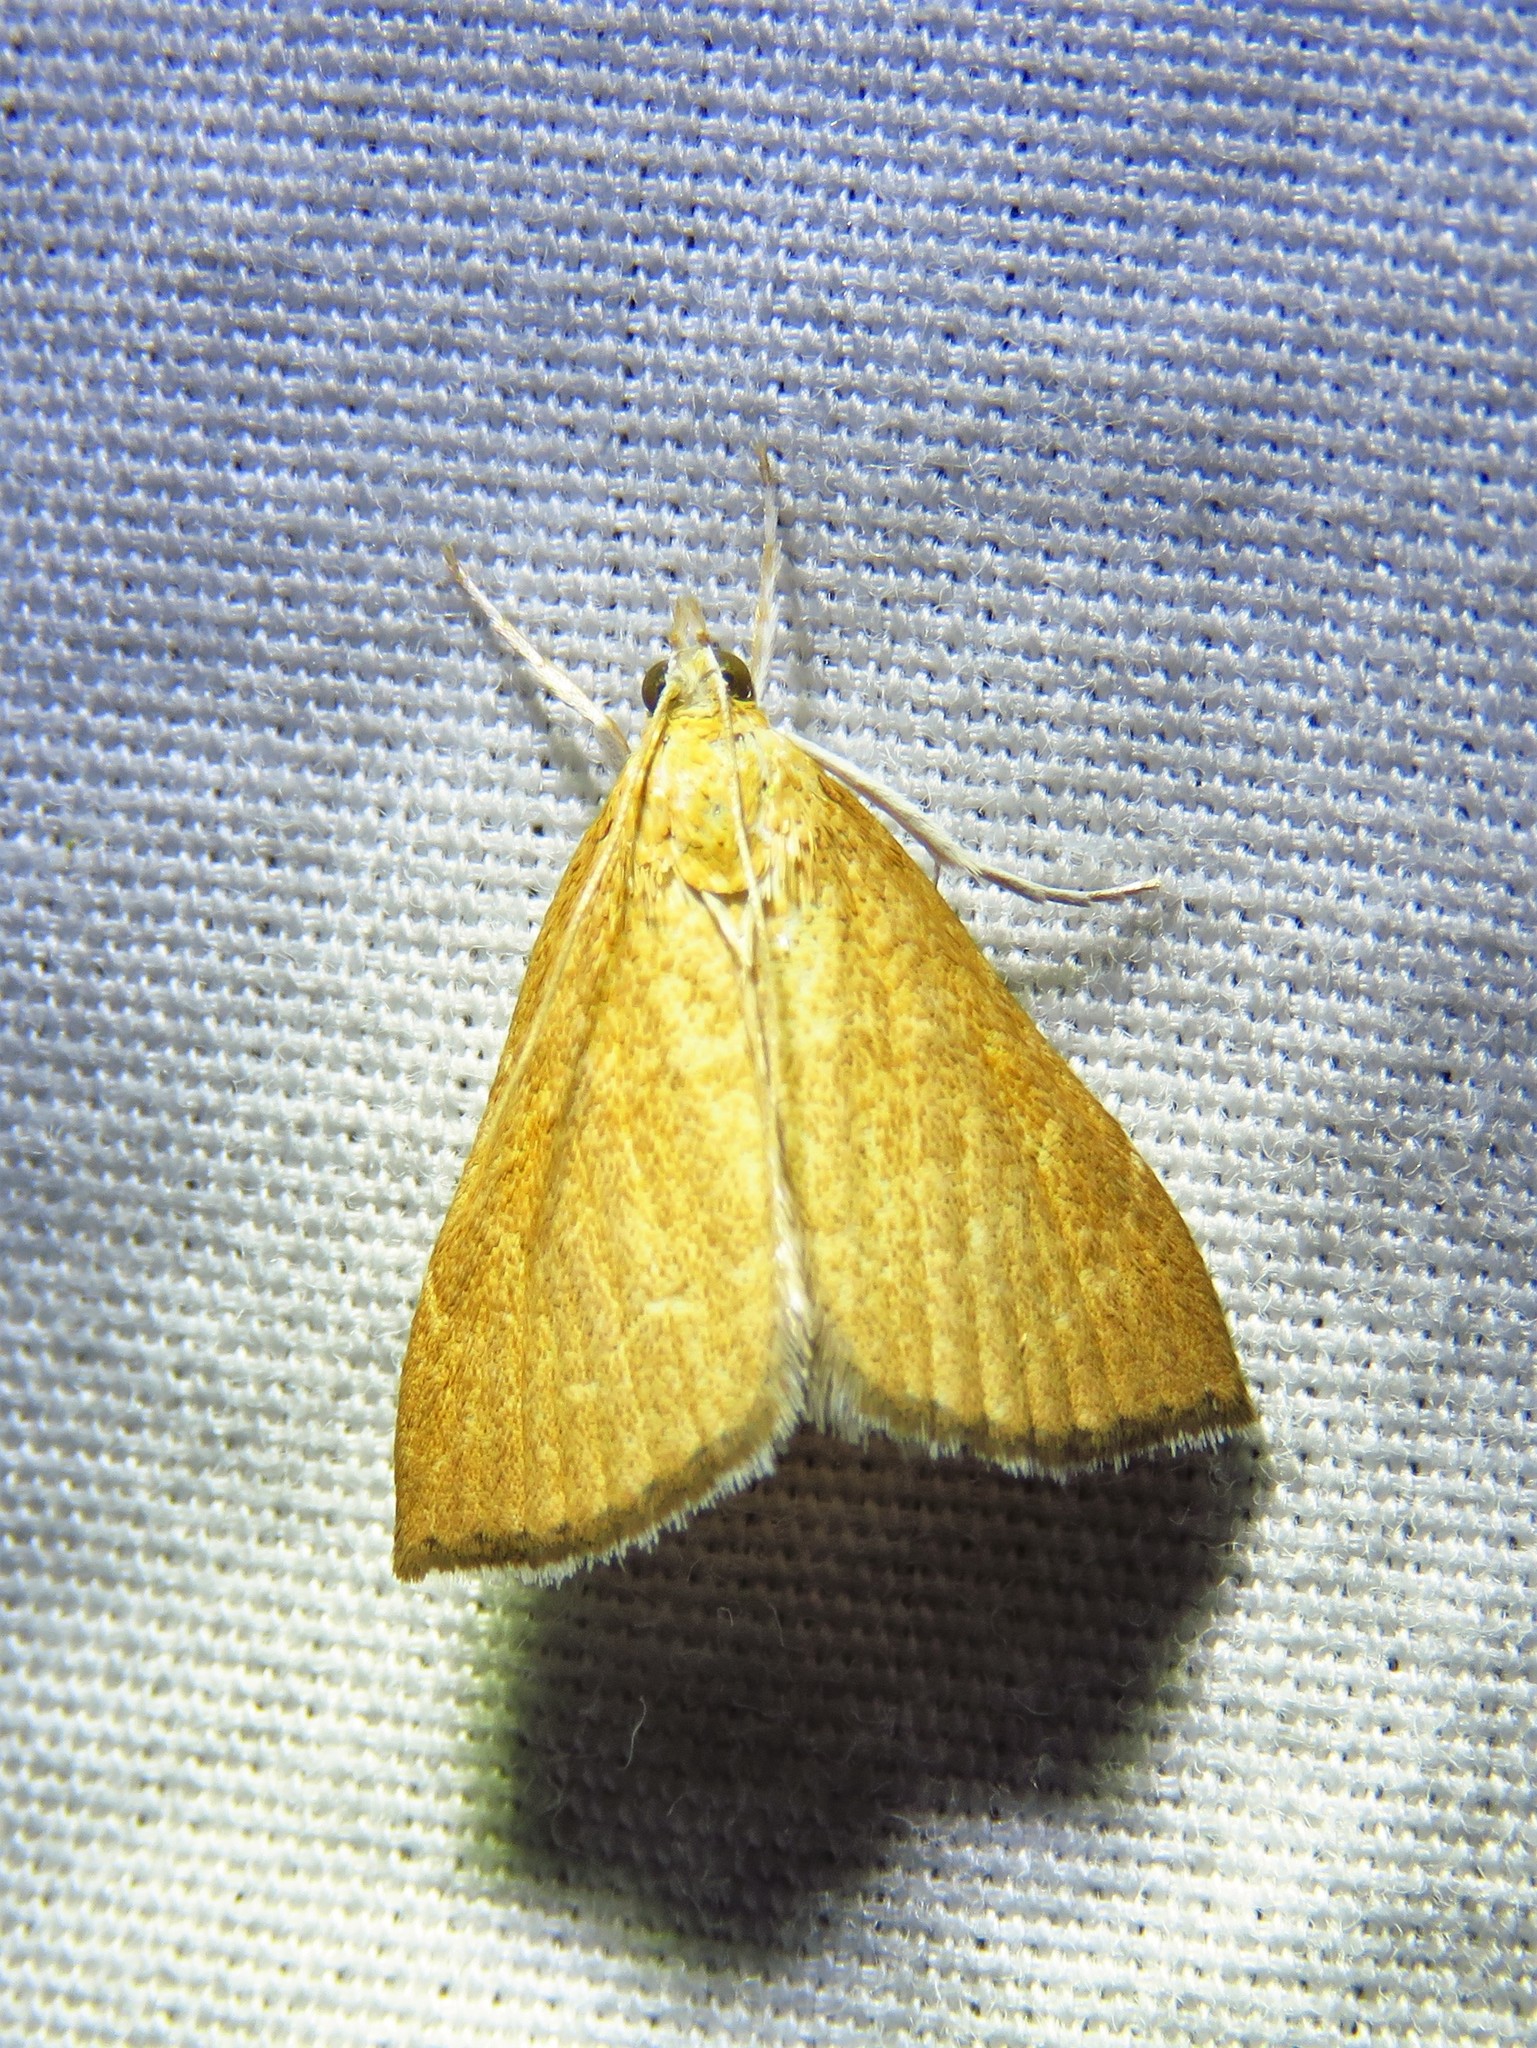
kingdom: Animalia
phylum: Arthropoda
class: Insecta
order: Lepidoptera
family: Crambidae
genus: Glaphyria
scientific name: Glaphyria invisalis
